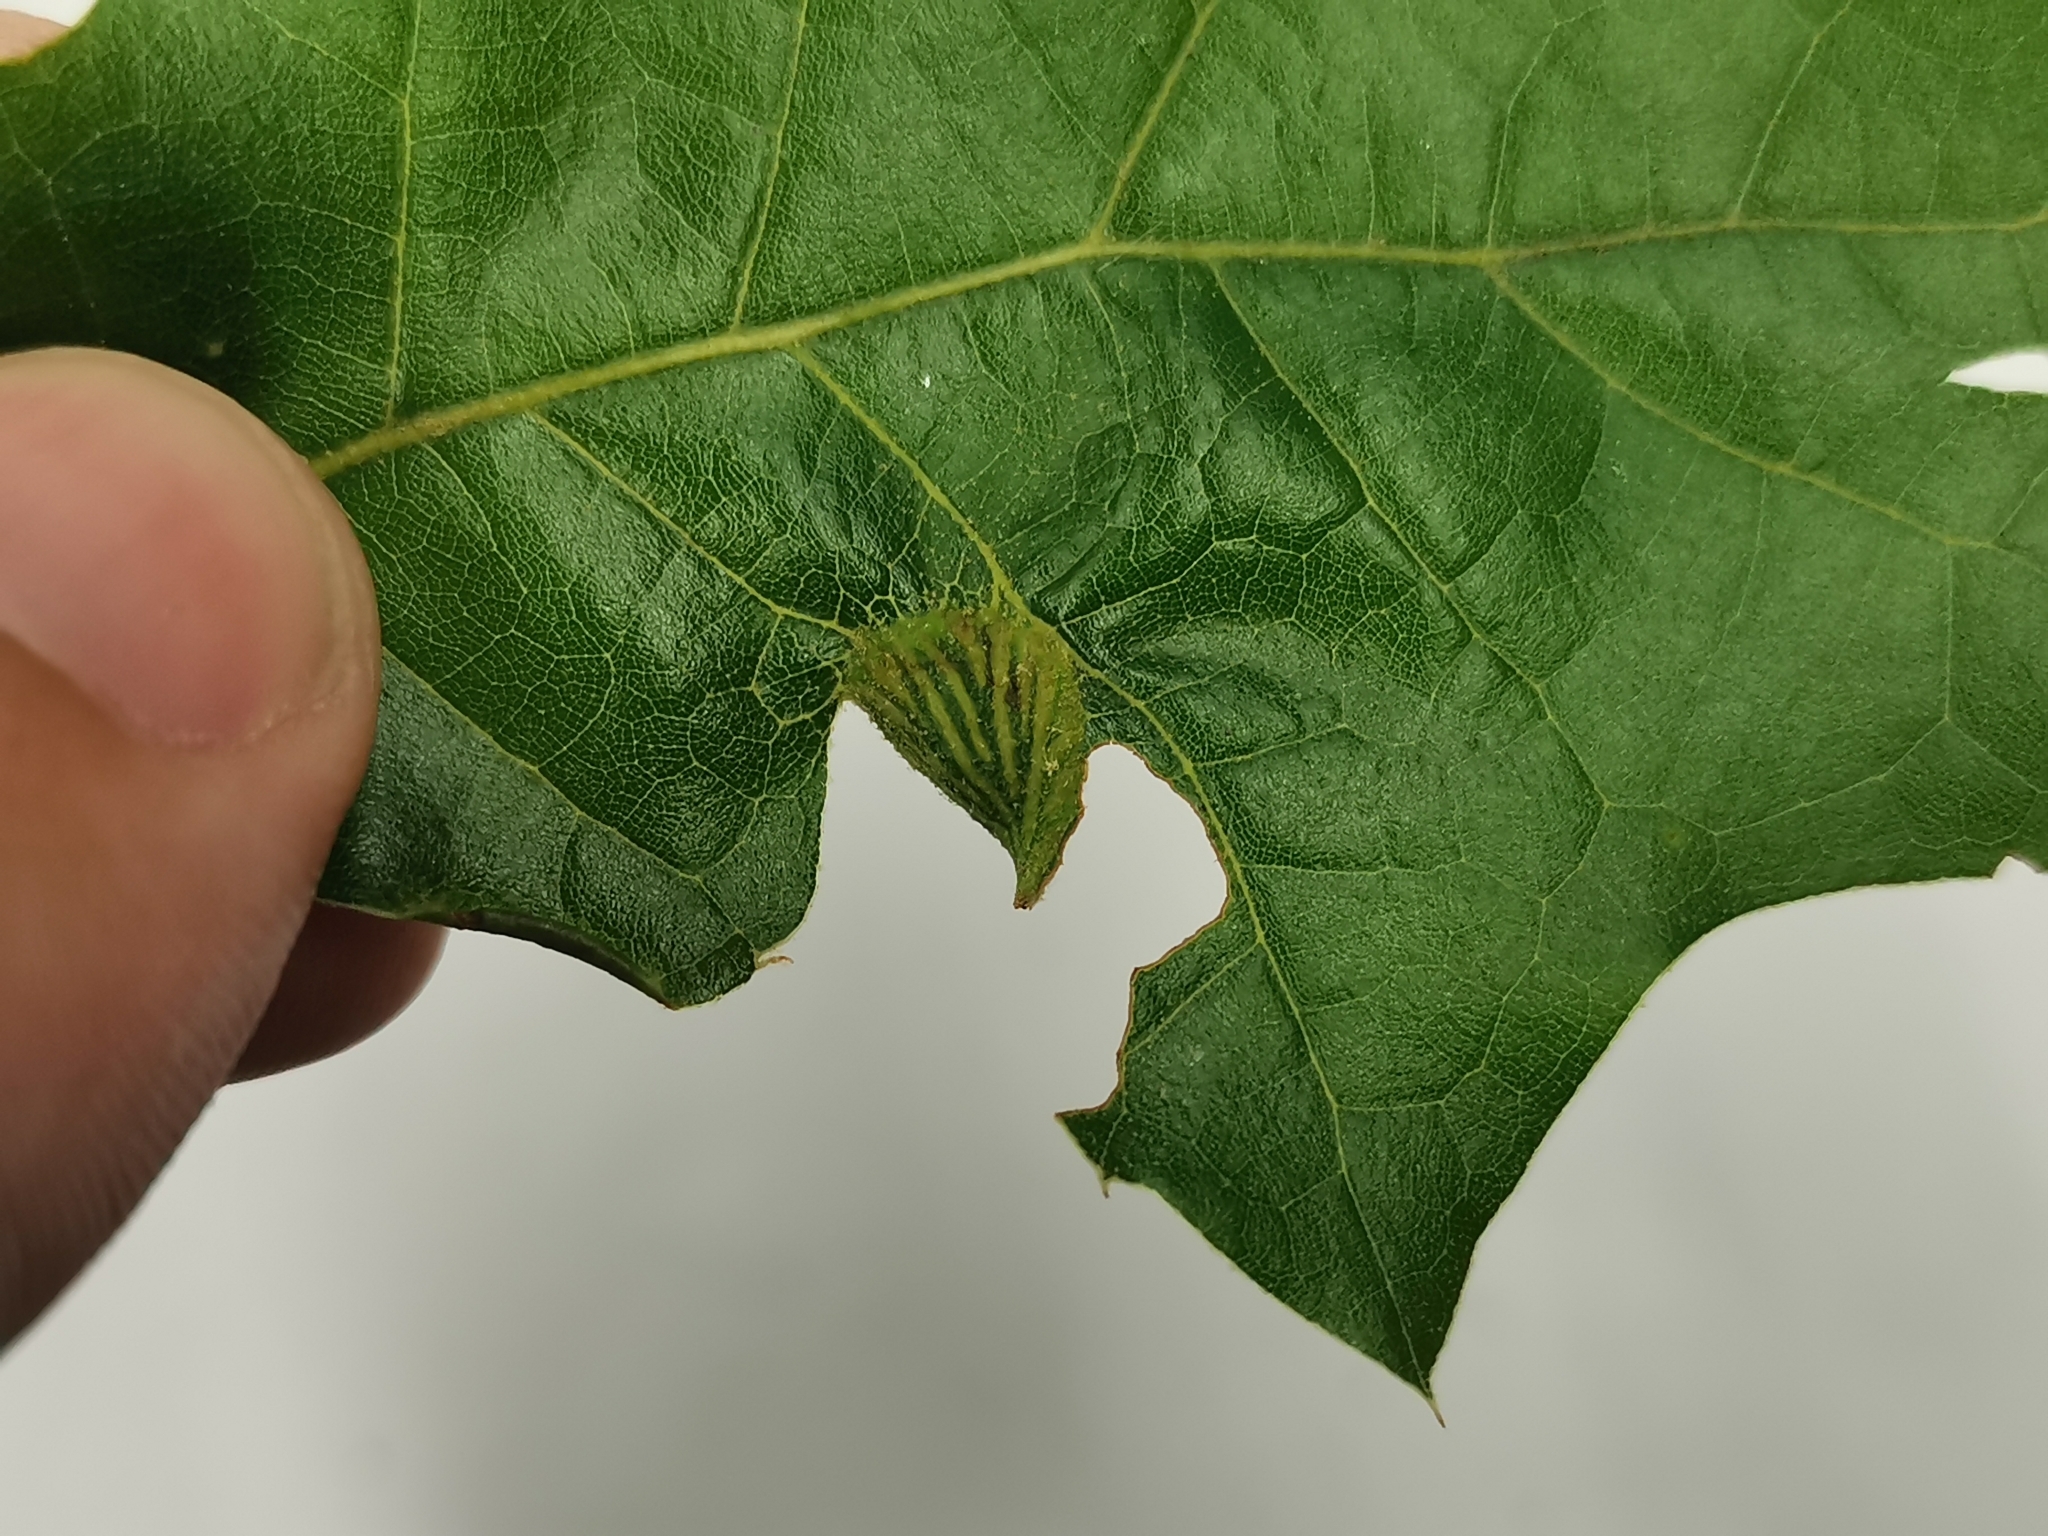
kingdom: Animalia
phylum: Arthropoda
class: Insecta
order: Hymenoptera
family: Cynipidae
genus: Dryocosmus
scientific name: Dryocosmus
